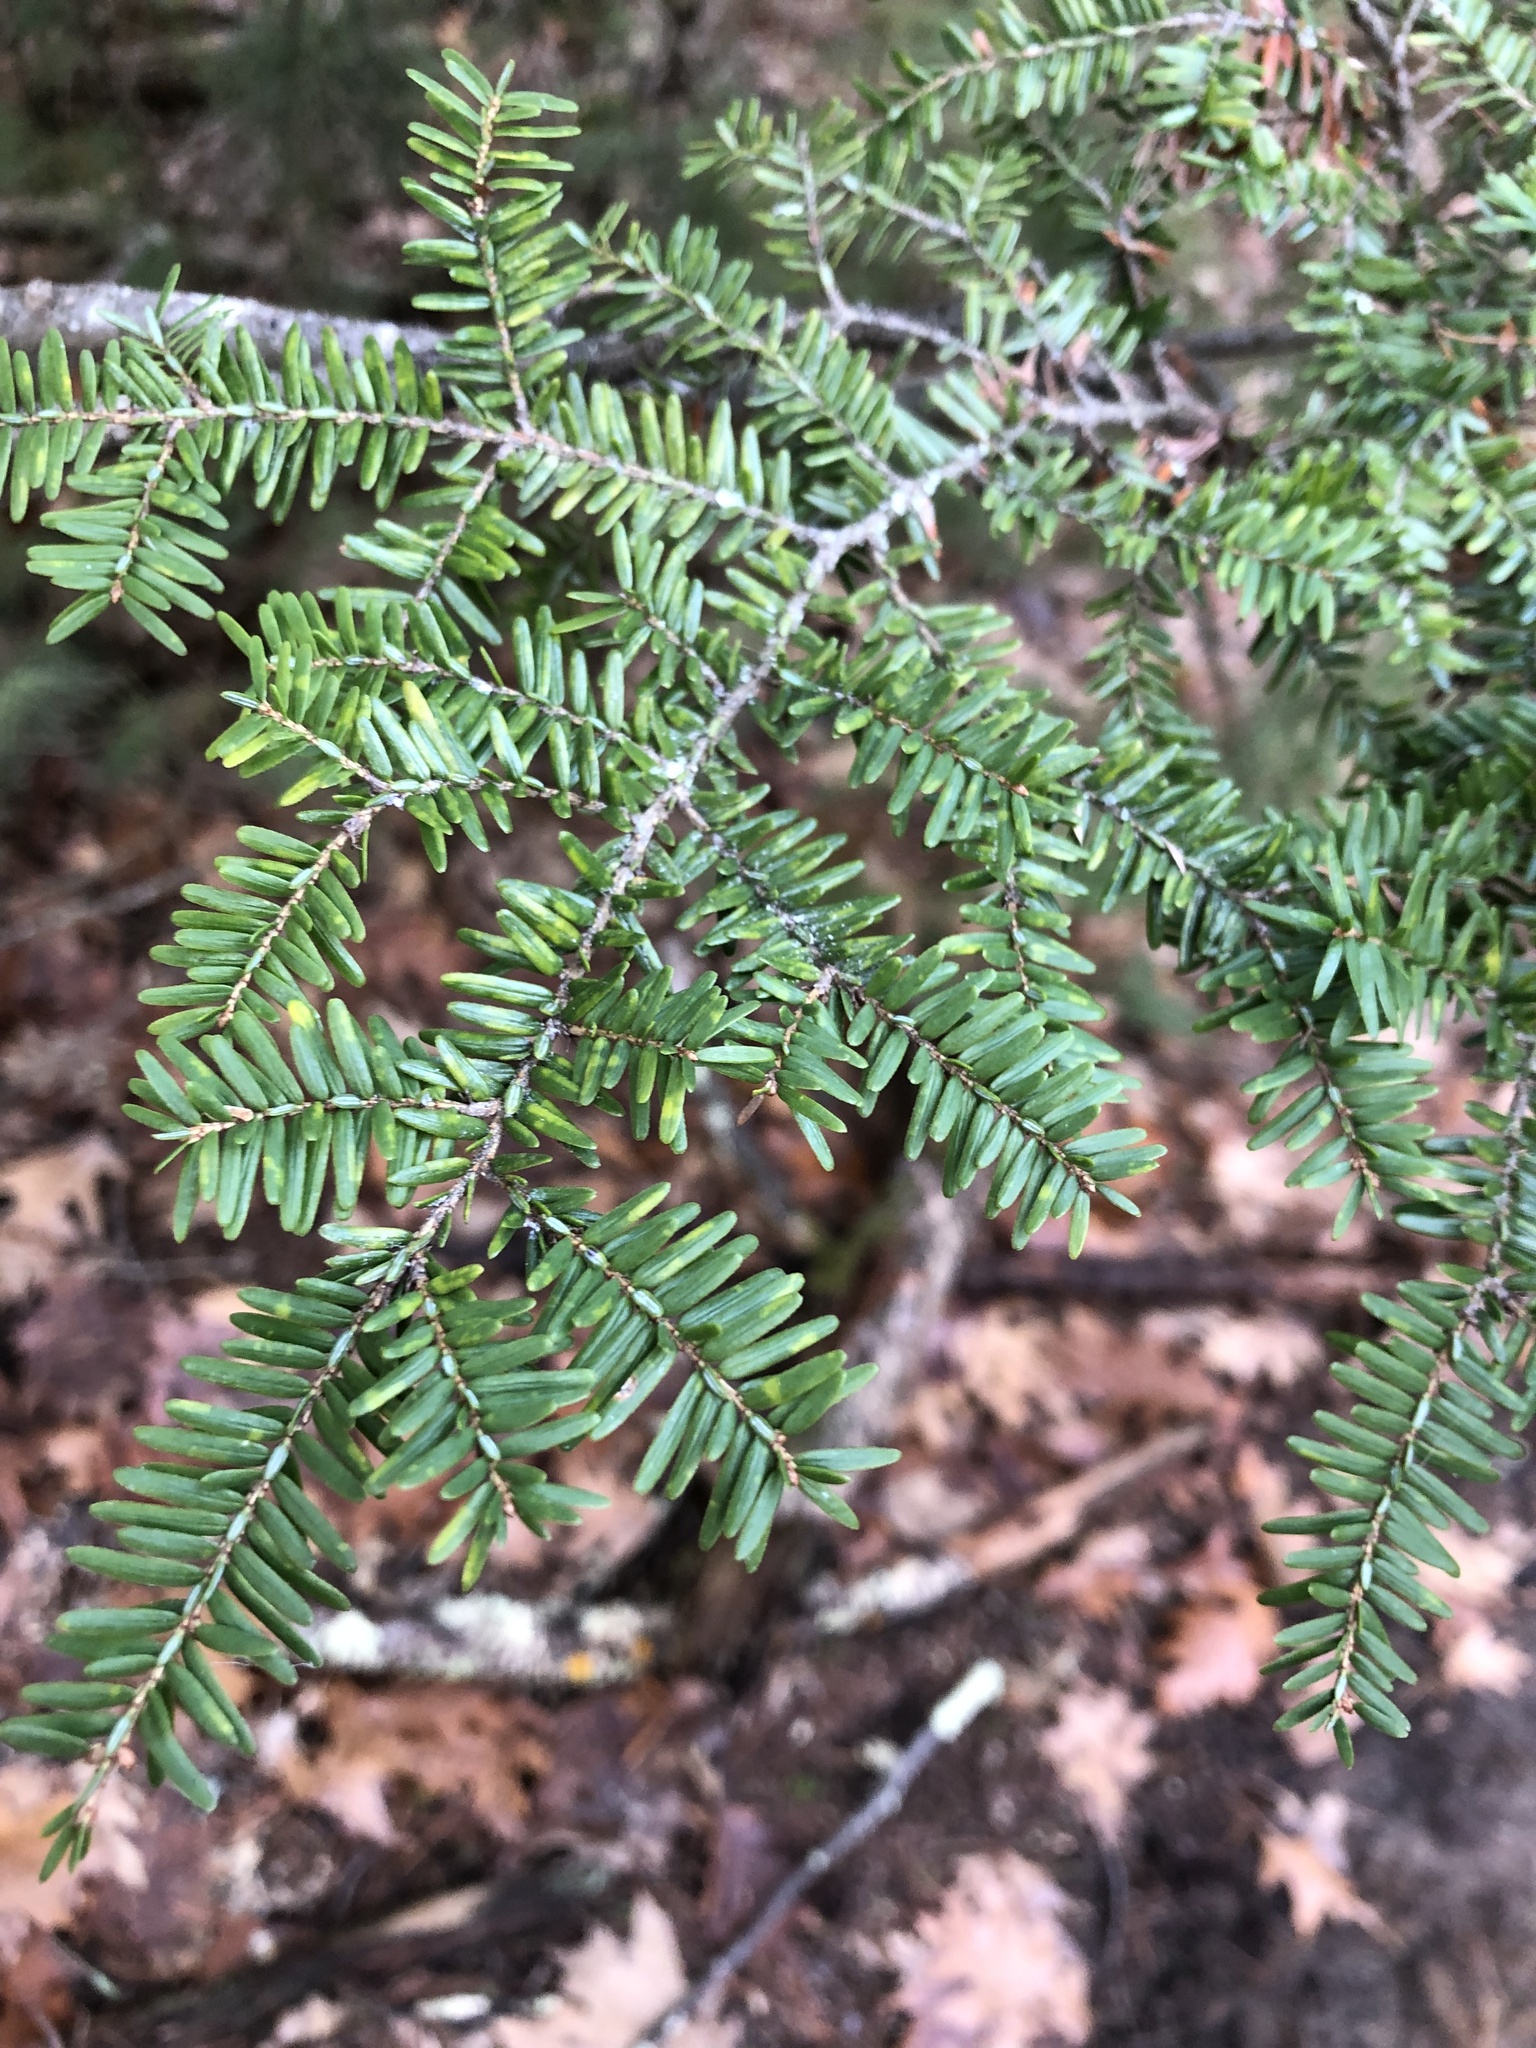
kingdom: Plantae
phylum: Tracheophyta
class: Pinopsida
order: Pinales
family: Pinaceae
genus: Tsuga
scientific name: Tsuga canadensis
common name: Eastern hemlock
